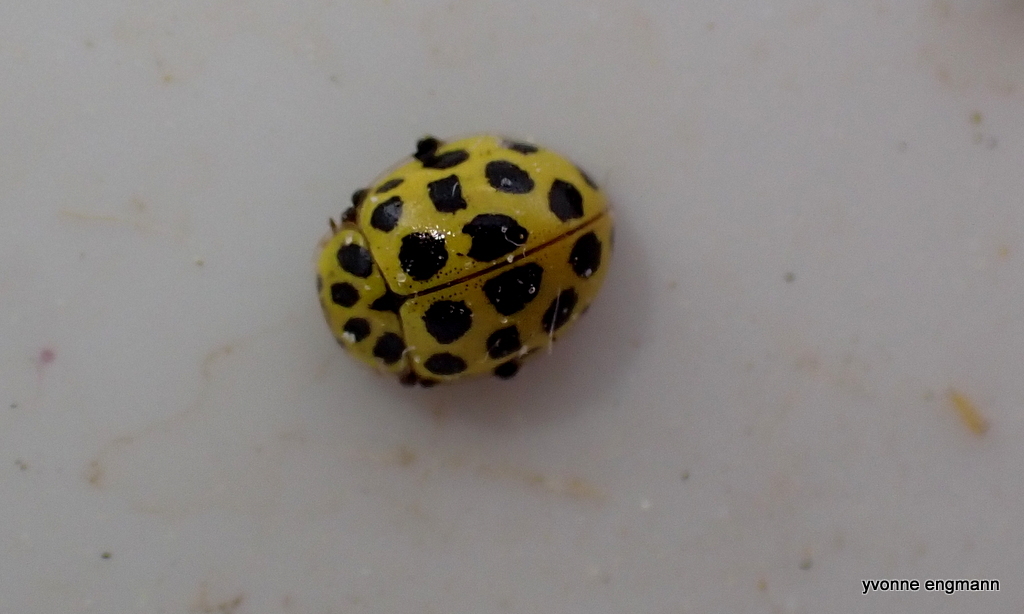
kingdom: Animalia
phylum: Arthropoda
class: Insecta
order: Coleoptera
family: Coccinellidae
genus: Psyllobora
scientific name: Psyllobora vigintiduopunctata
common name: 22-spot ladybird
